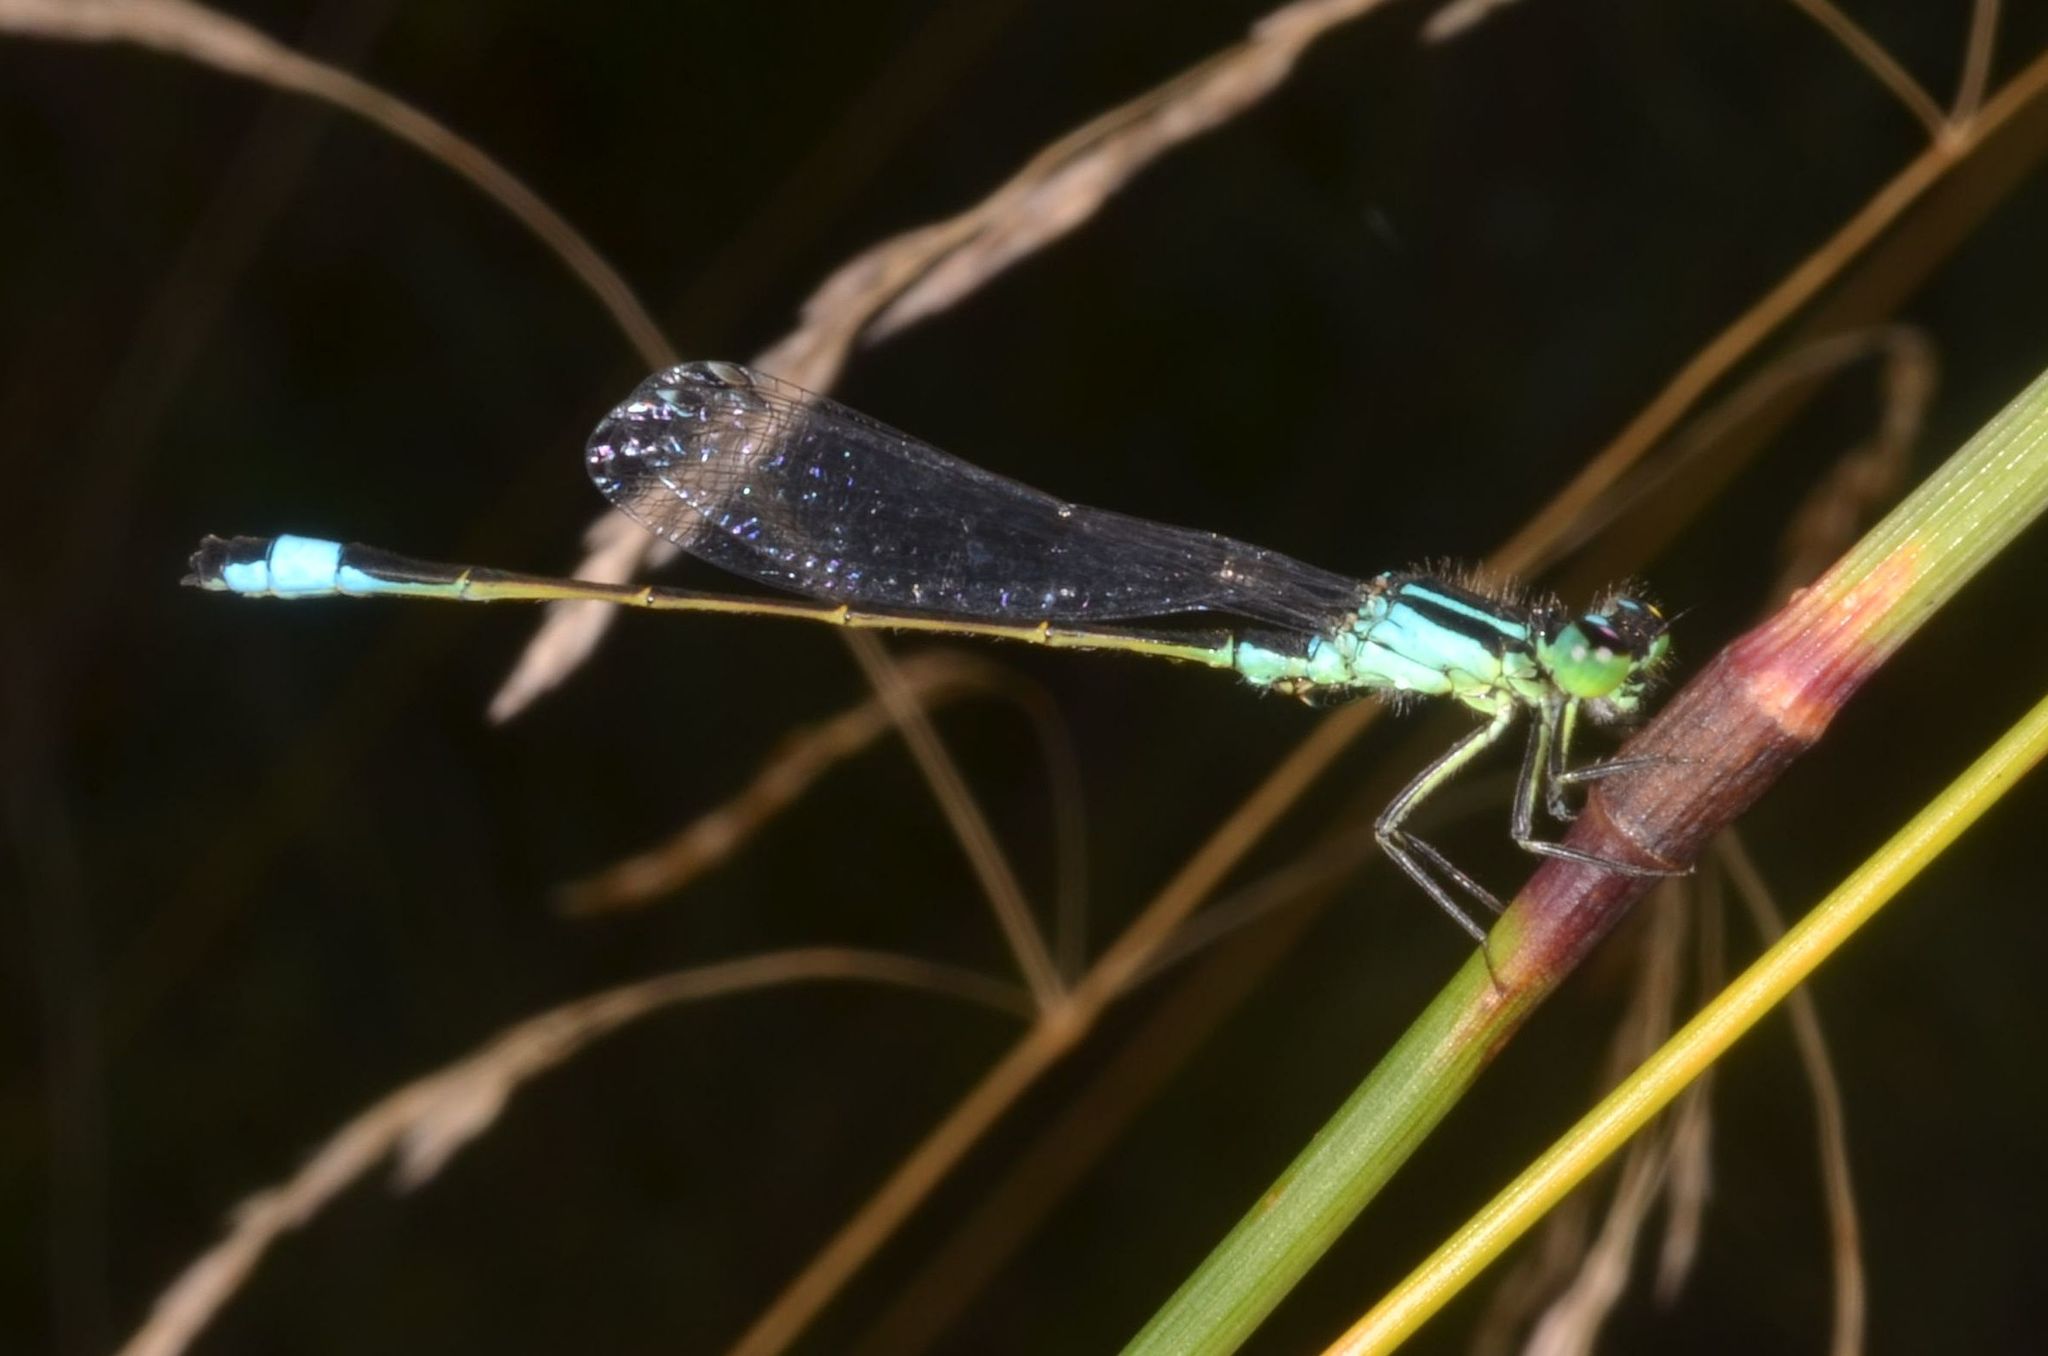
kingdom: Animalia
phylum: Arthropoda
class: Insecta
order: Odonata
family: Coenagrionidae
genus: Ischnura
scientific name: Ischnura elegans
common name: Blue-tailed damselfly
